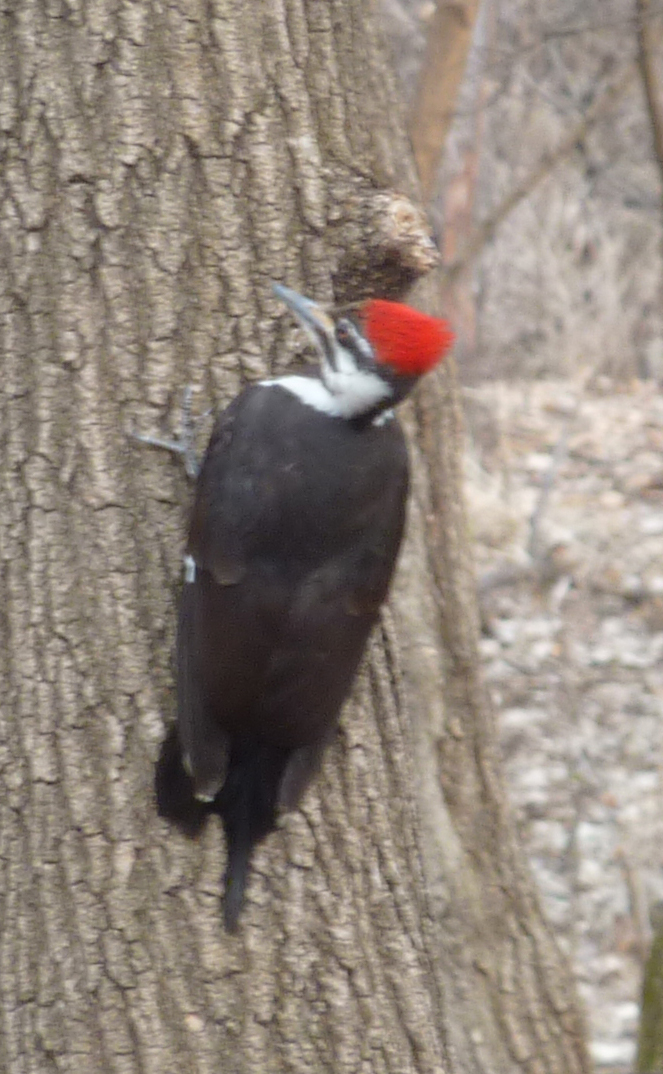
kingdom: Animalia
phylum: Chordata
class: Aves
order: Piciformes
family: Picidae
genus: Dryocopus
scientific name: Dryocopus pileatus
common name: Pileated woodpecker
